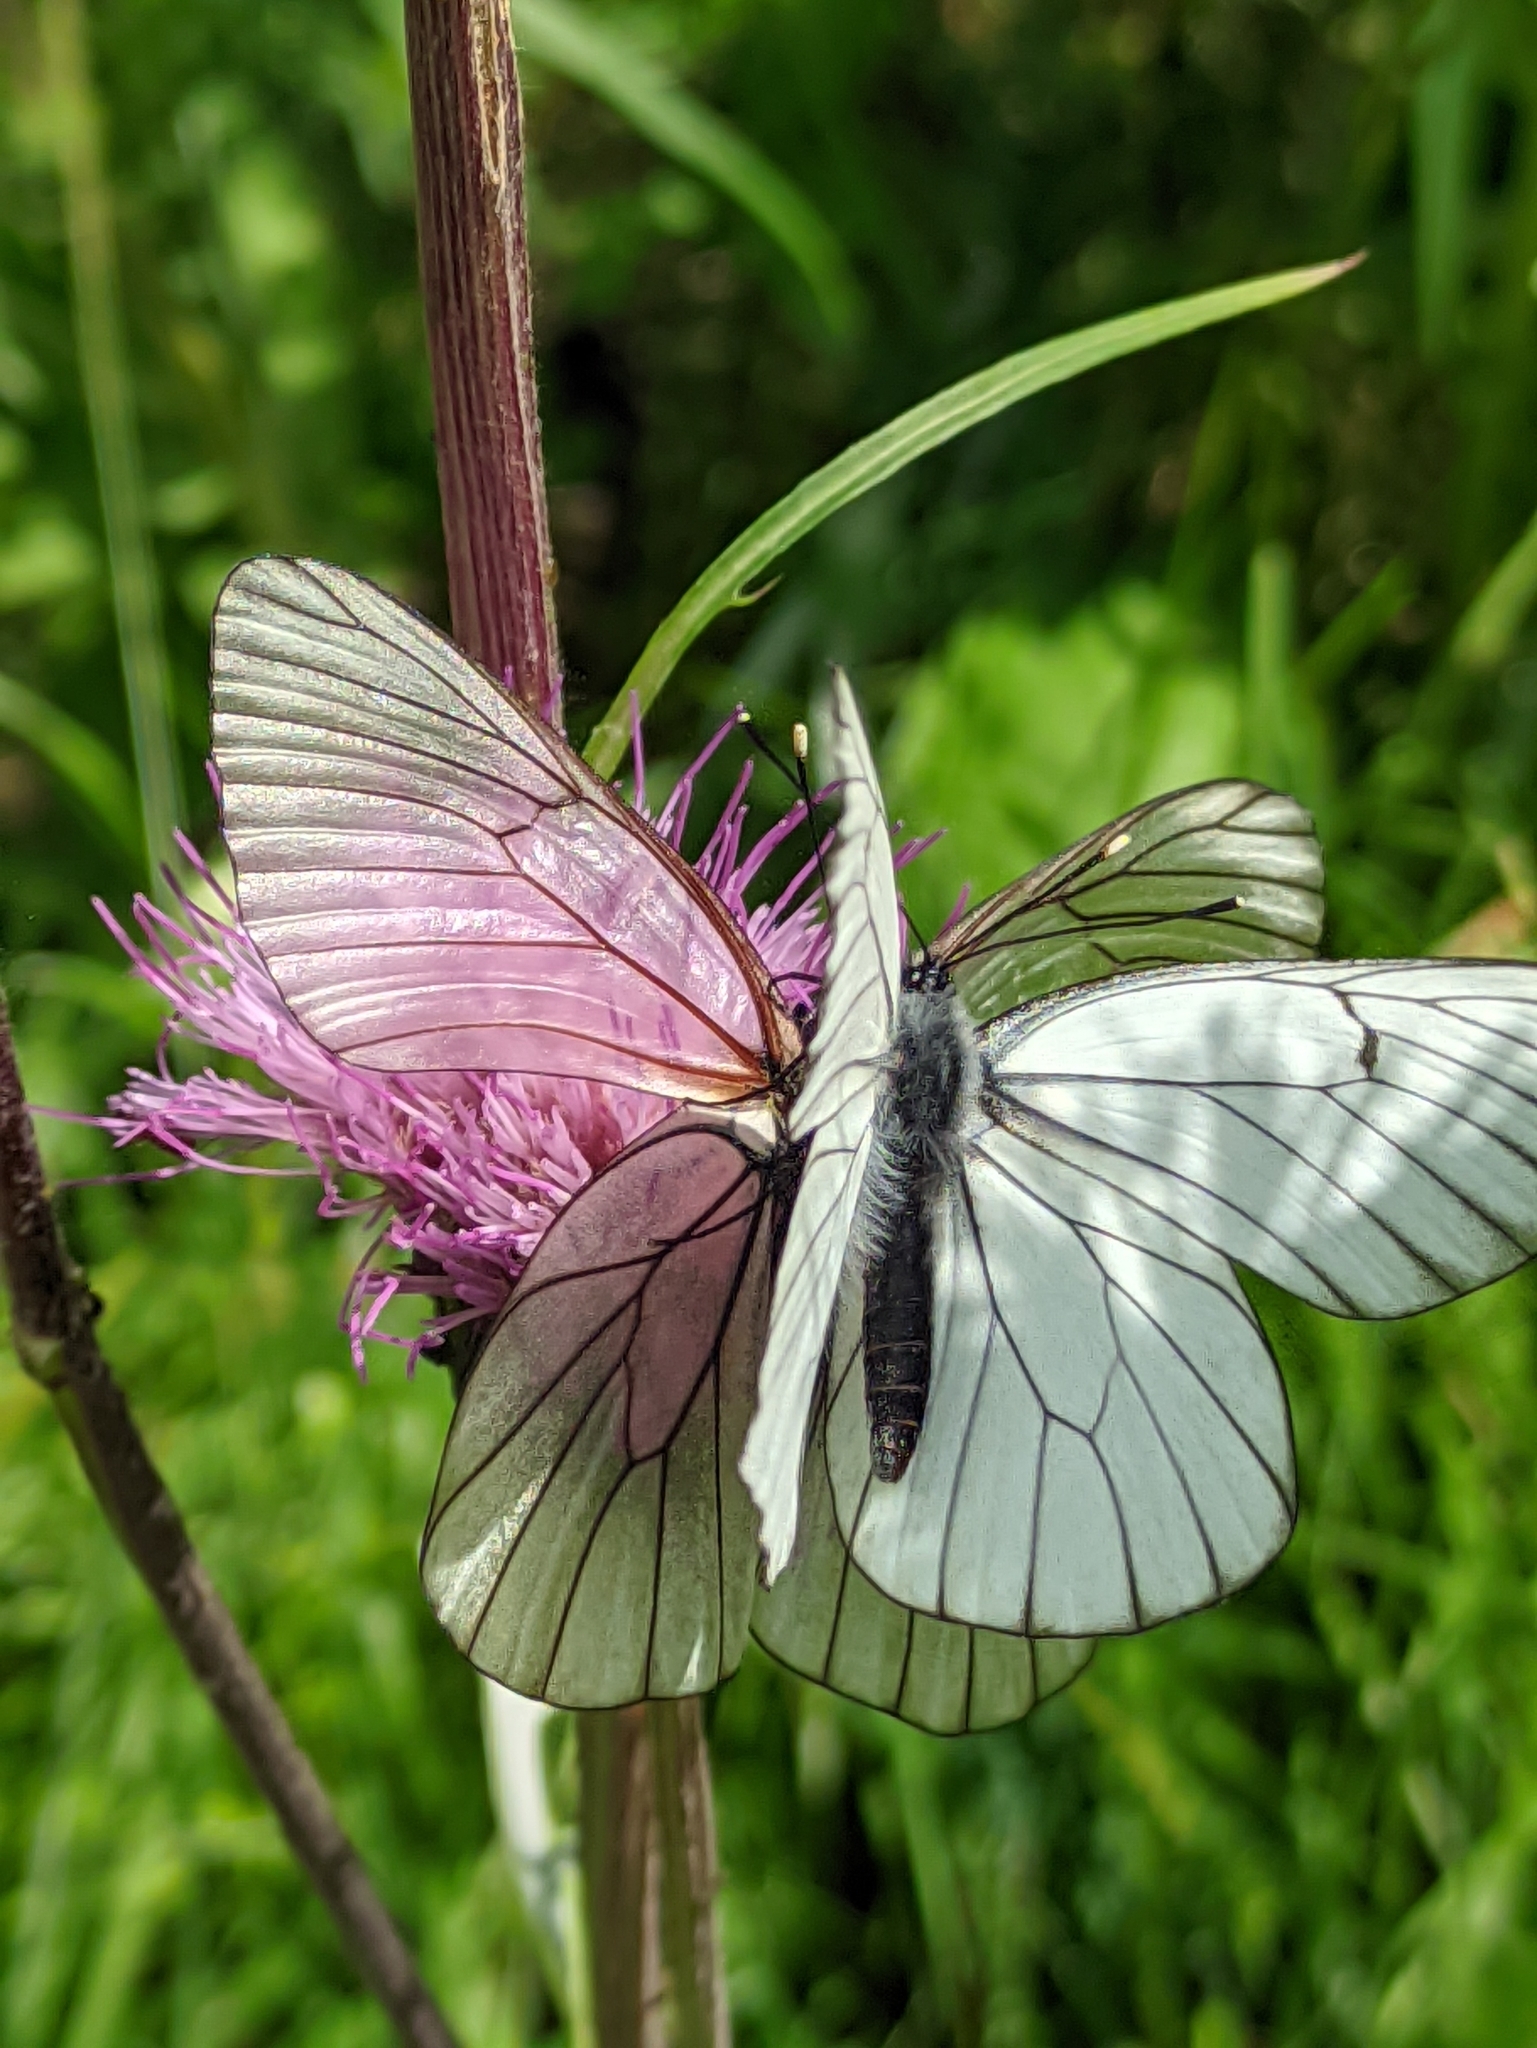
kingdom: Animalia
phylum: Arthropoda
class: Insecta
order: Lepidoptera
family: Pieridae
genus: Aporia
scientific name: Aporia crataegi
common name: Black-veined white
